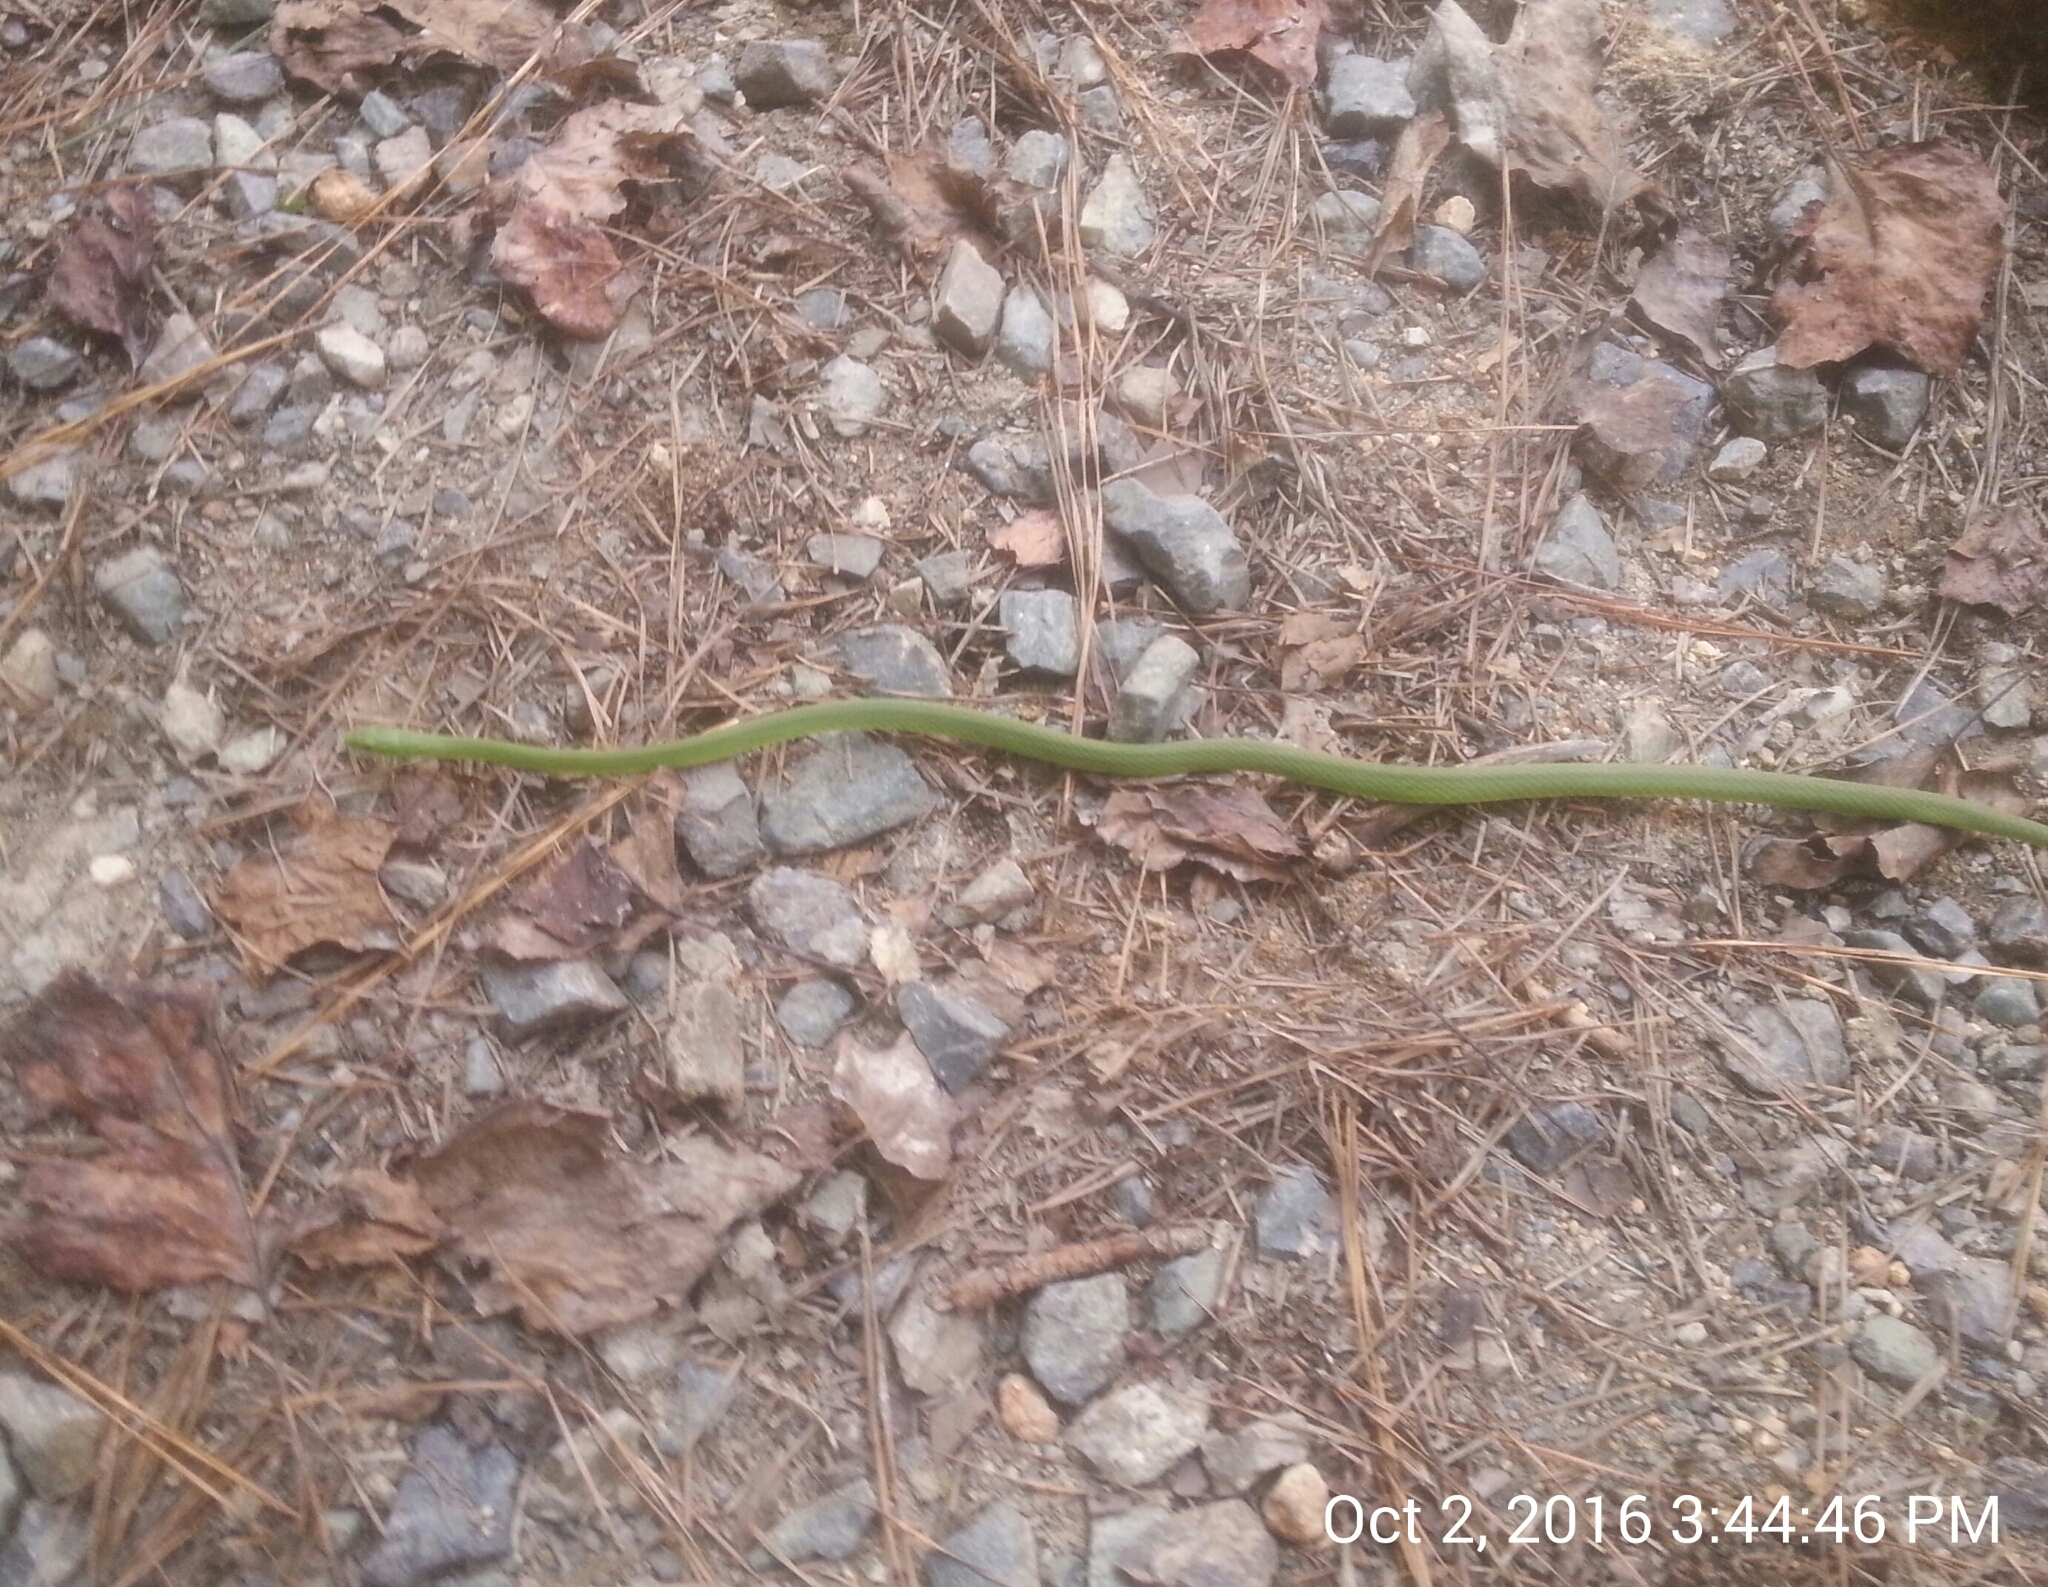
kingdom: Animalia
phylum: Chordata
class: Squamata
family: Colubridae
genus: Opheodrys
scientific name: Opheodrys aestivus
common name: Rough greensnake
